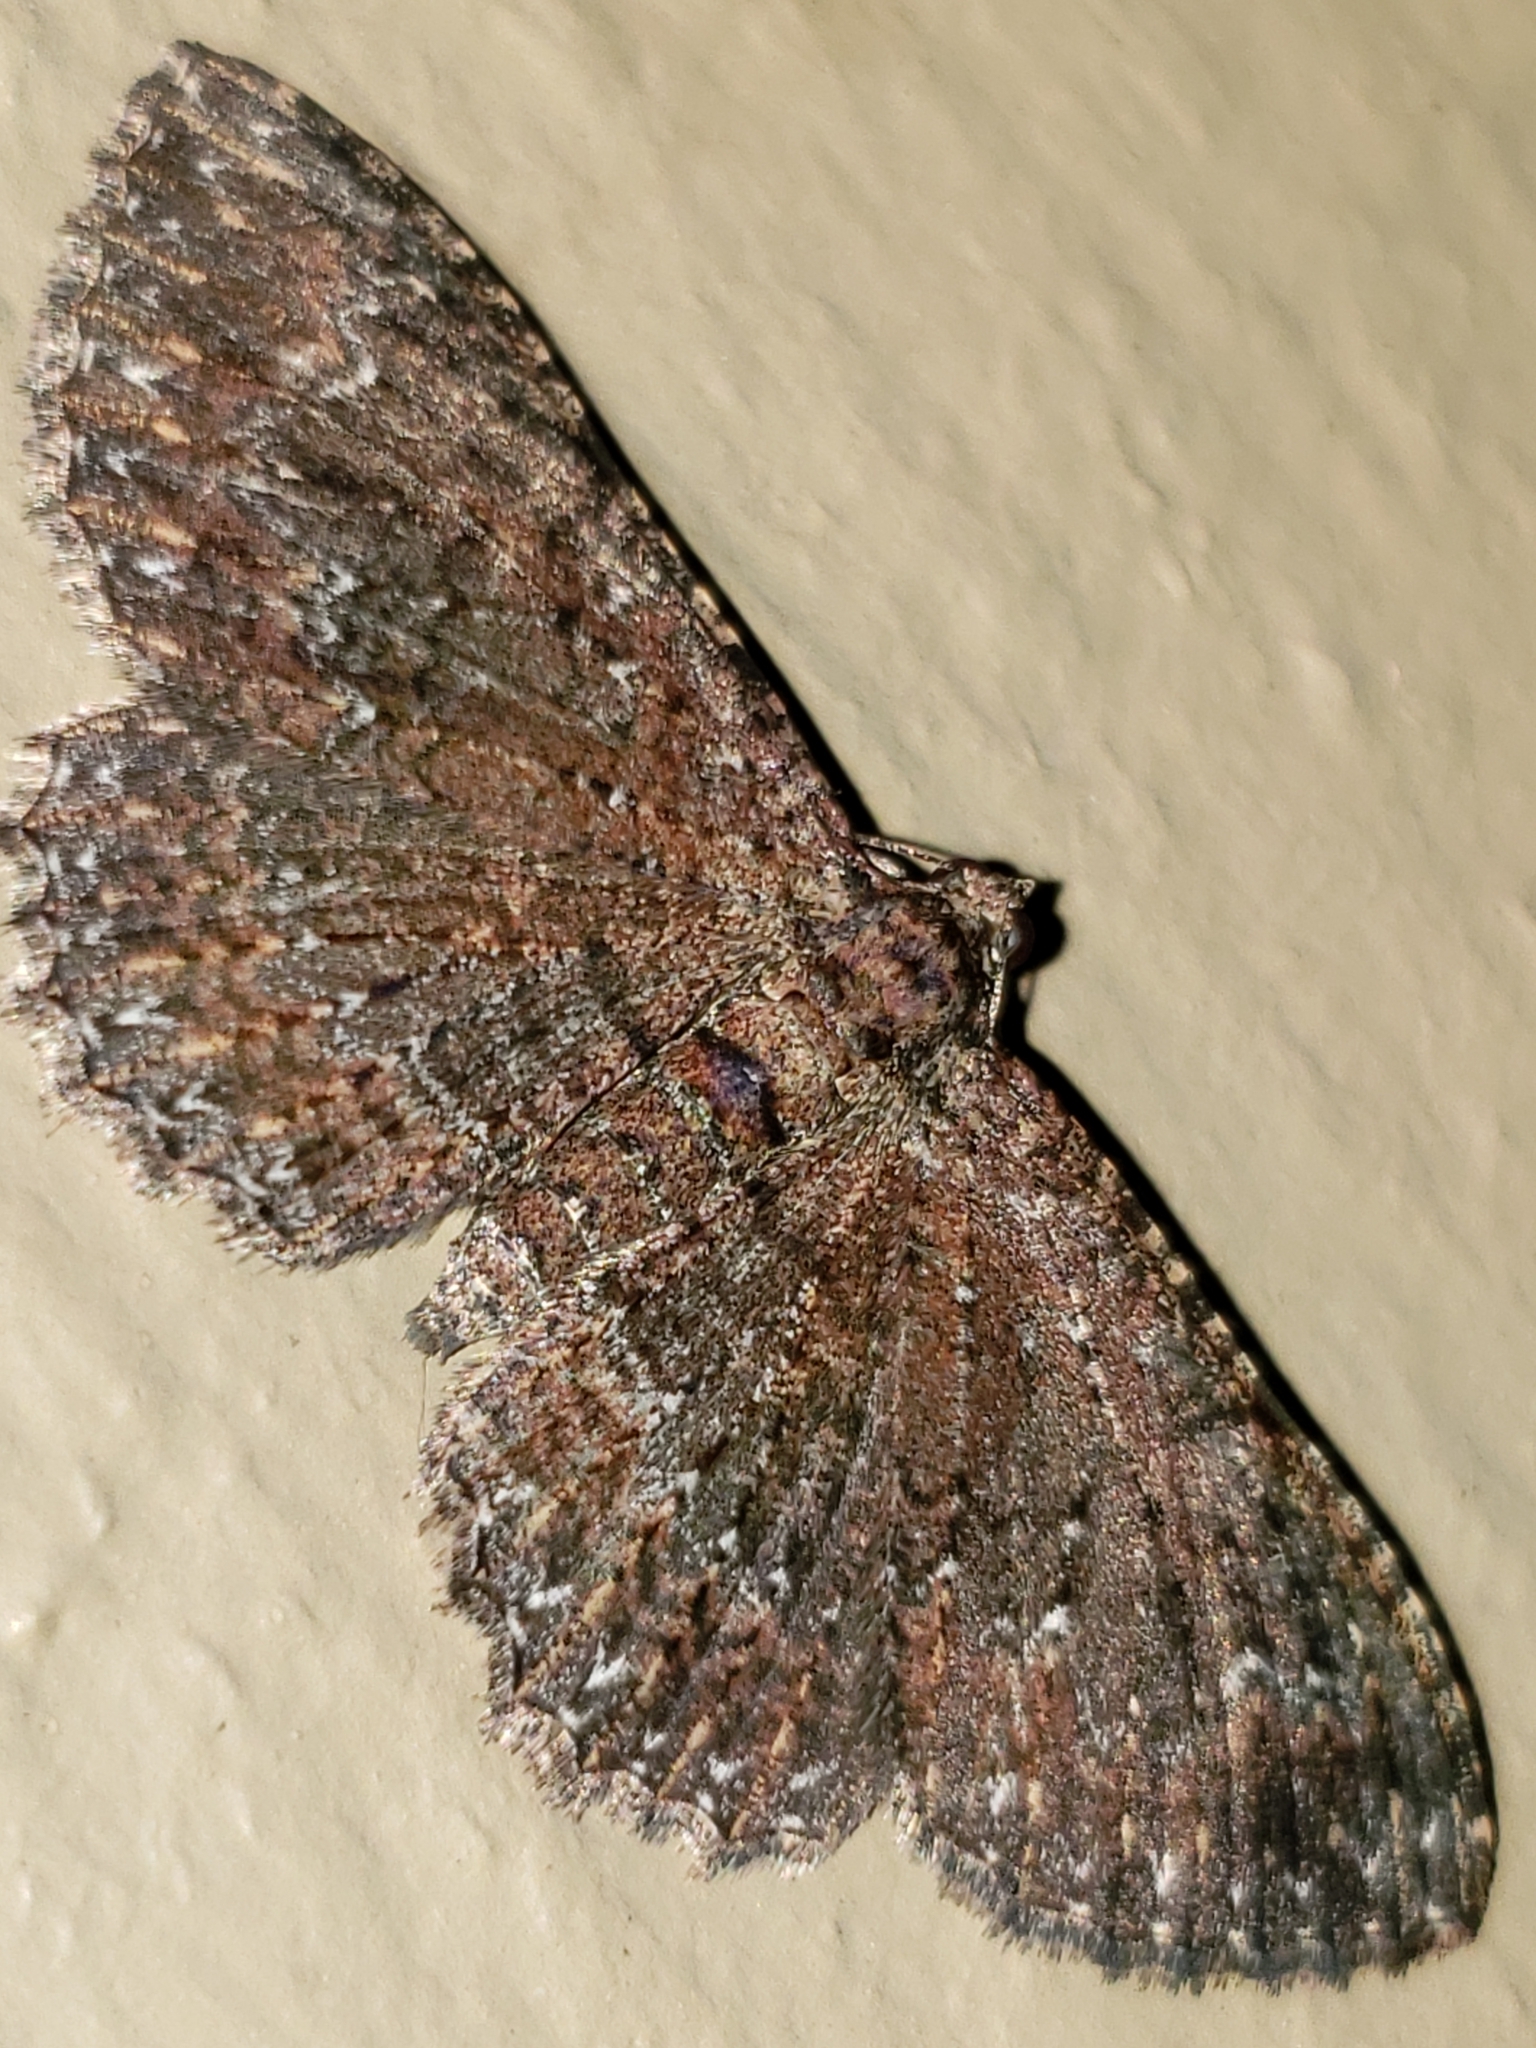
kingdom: Animalia
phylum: Arthropoda
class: Insecta
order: Lepidoptera
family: Geometridae
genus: Disclisioprocta
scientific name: Disclisioprocta stellata
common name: Somber carpet
